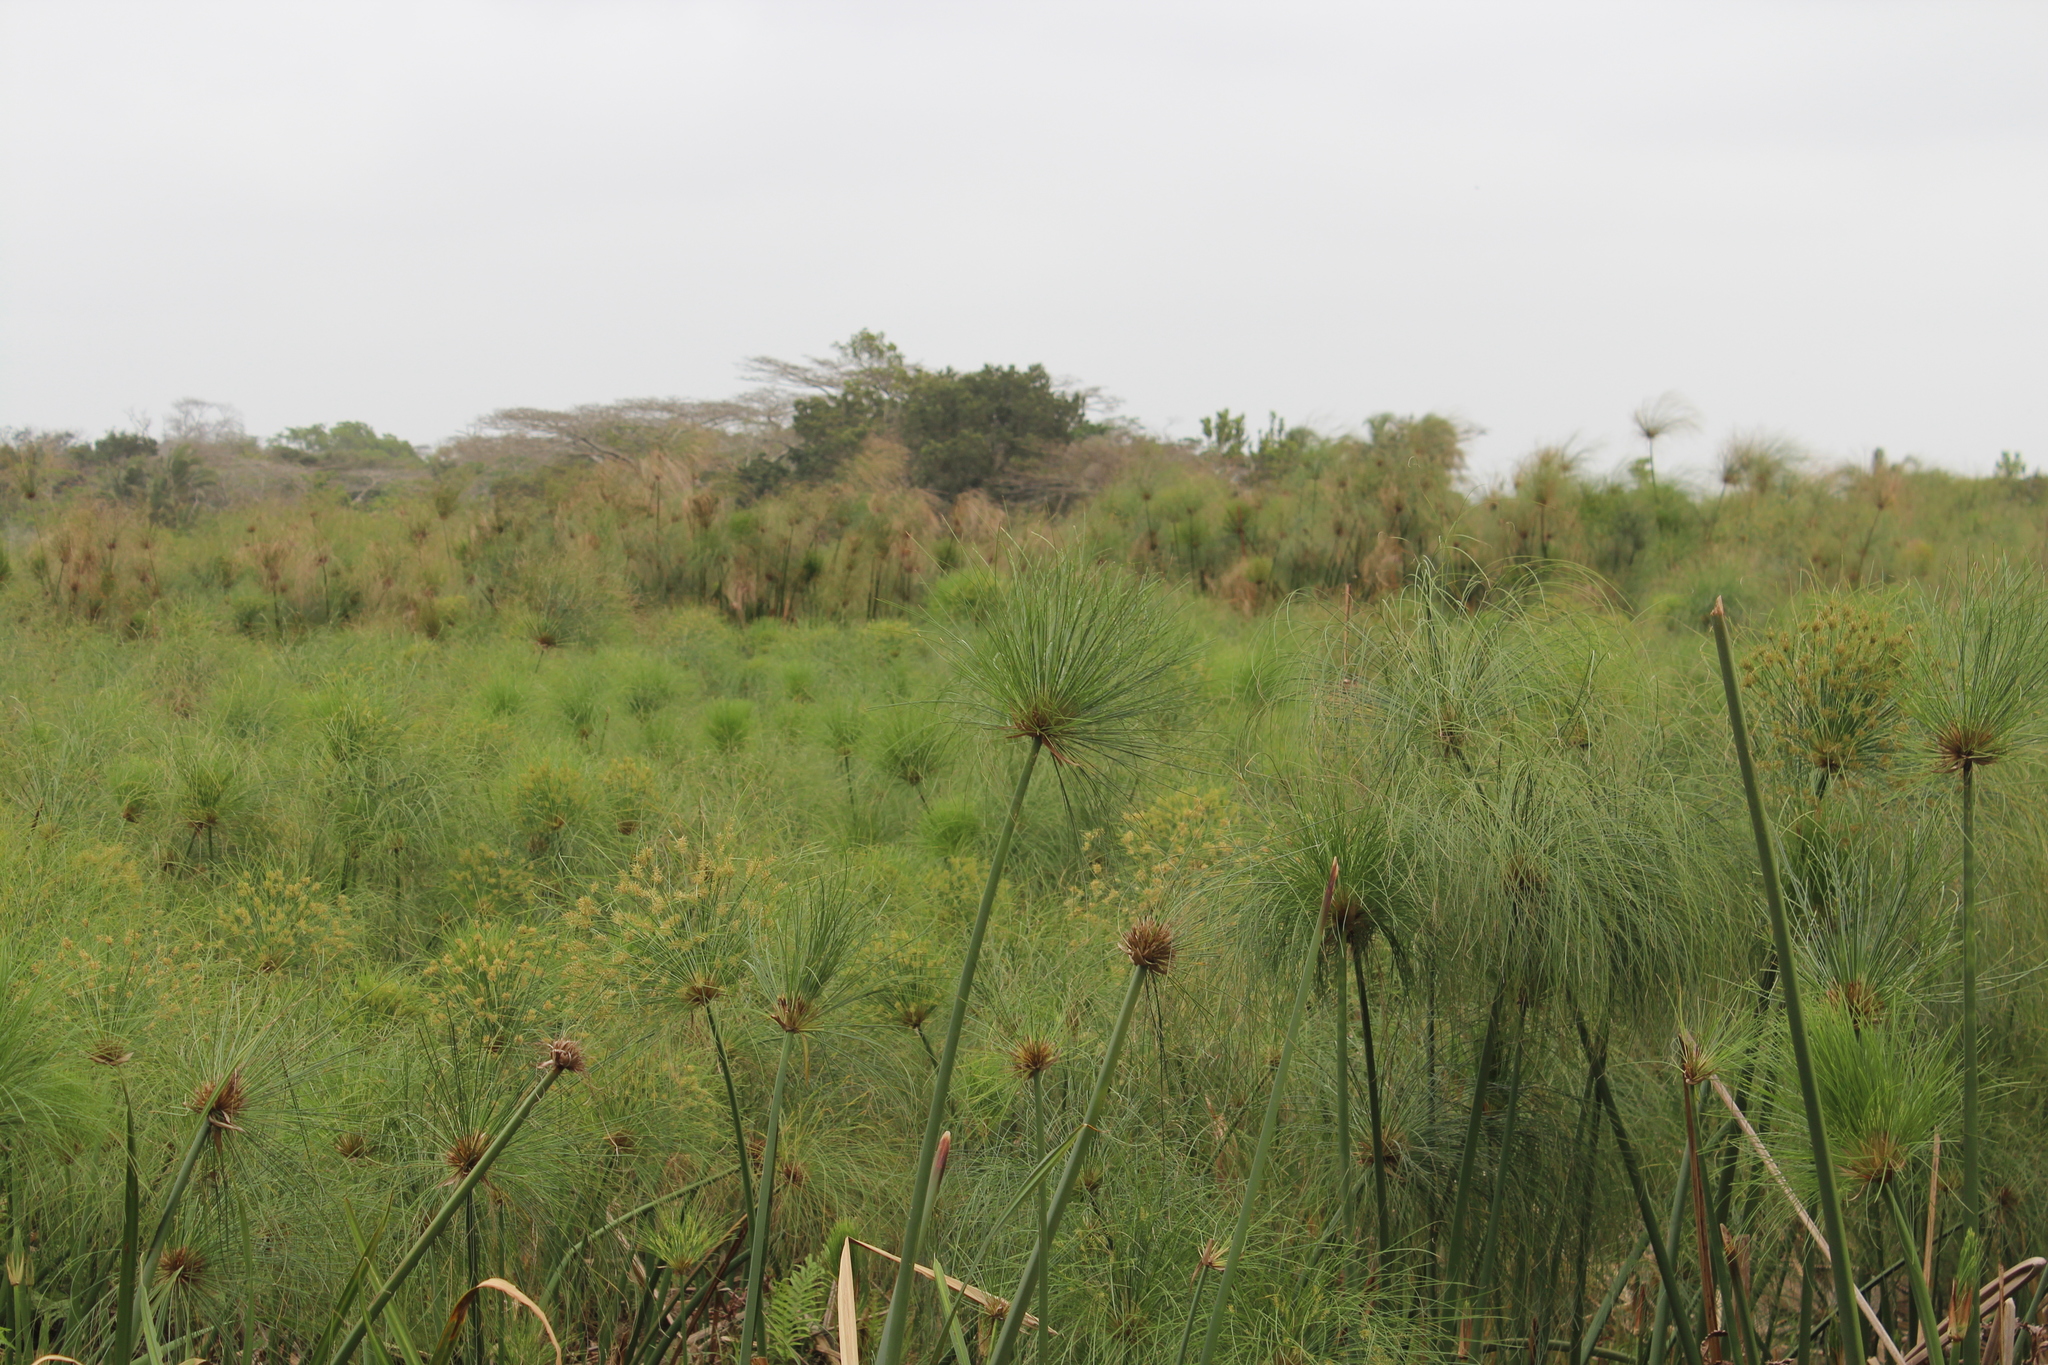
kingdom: Plantae
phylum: Tracheophyta
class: Liliopsida
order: Poales
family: Cyperaceae
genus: Cyperus
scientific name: Cyperus papyrus
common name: Papyrus
